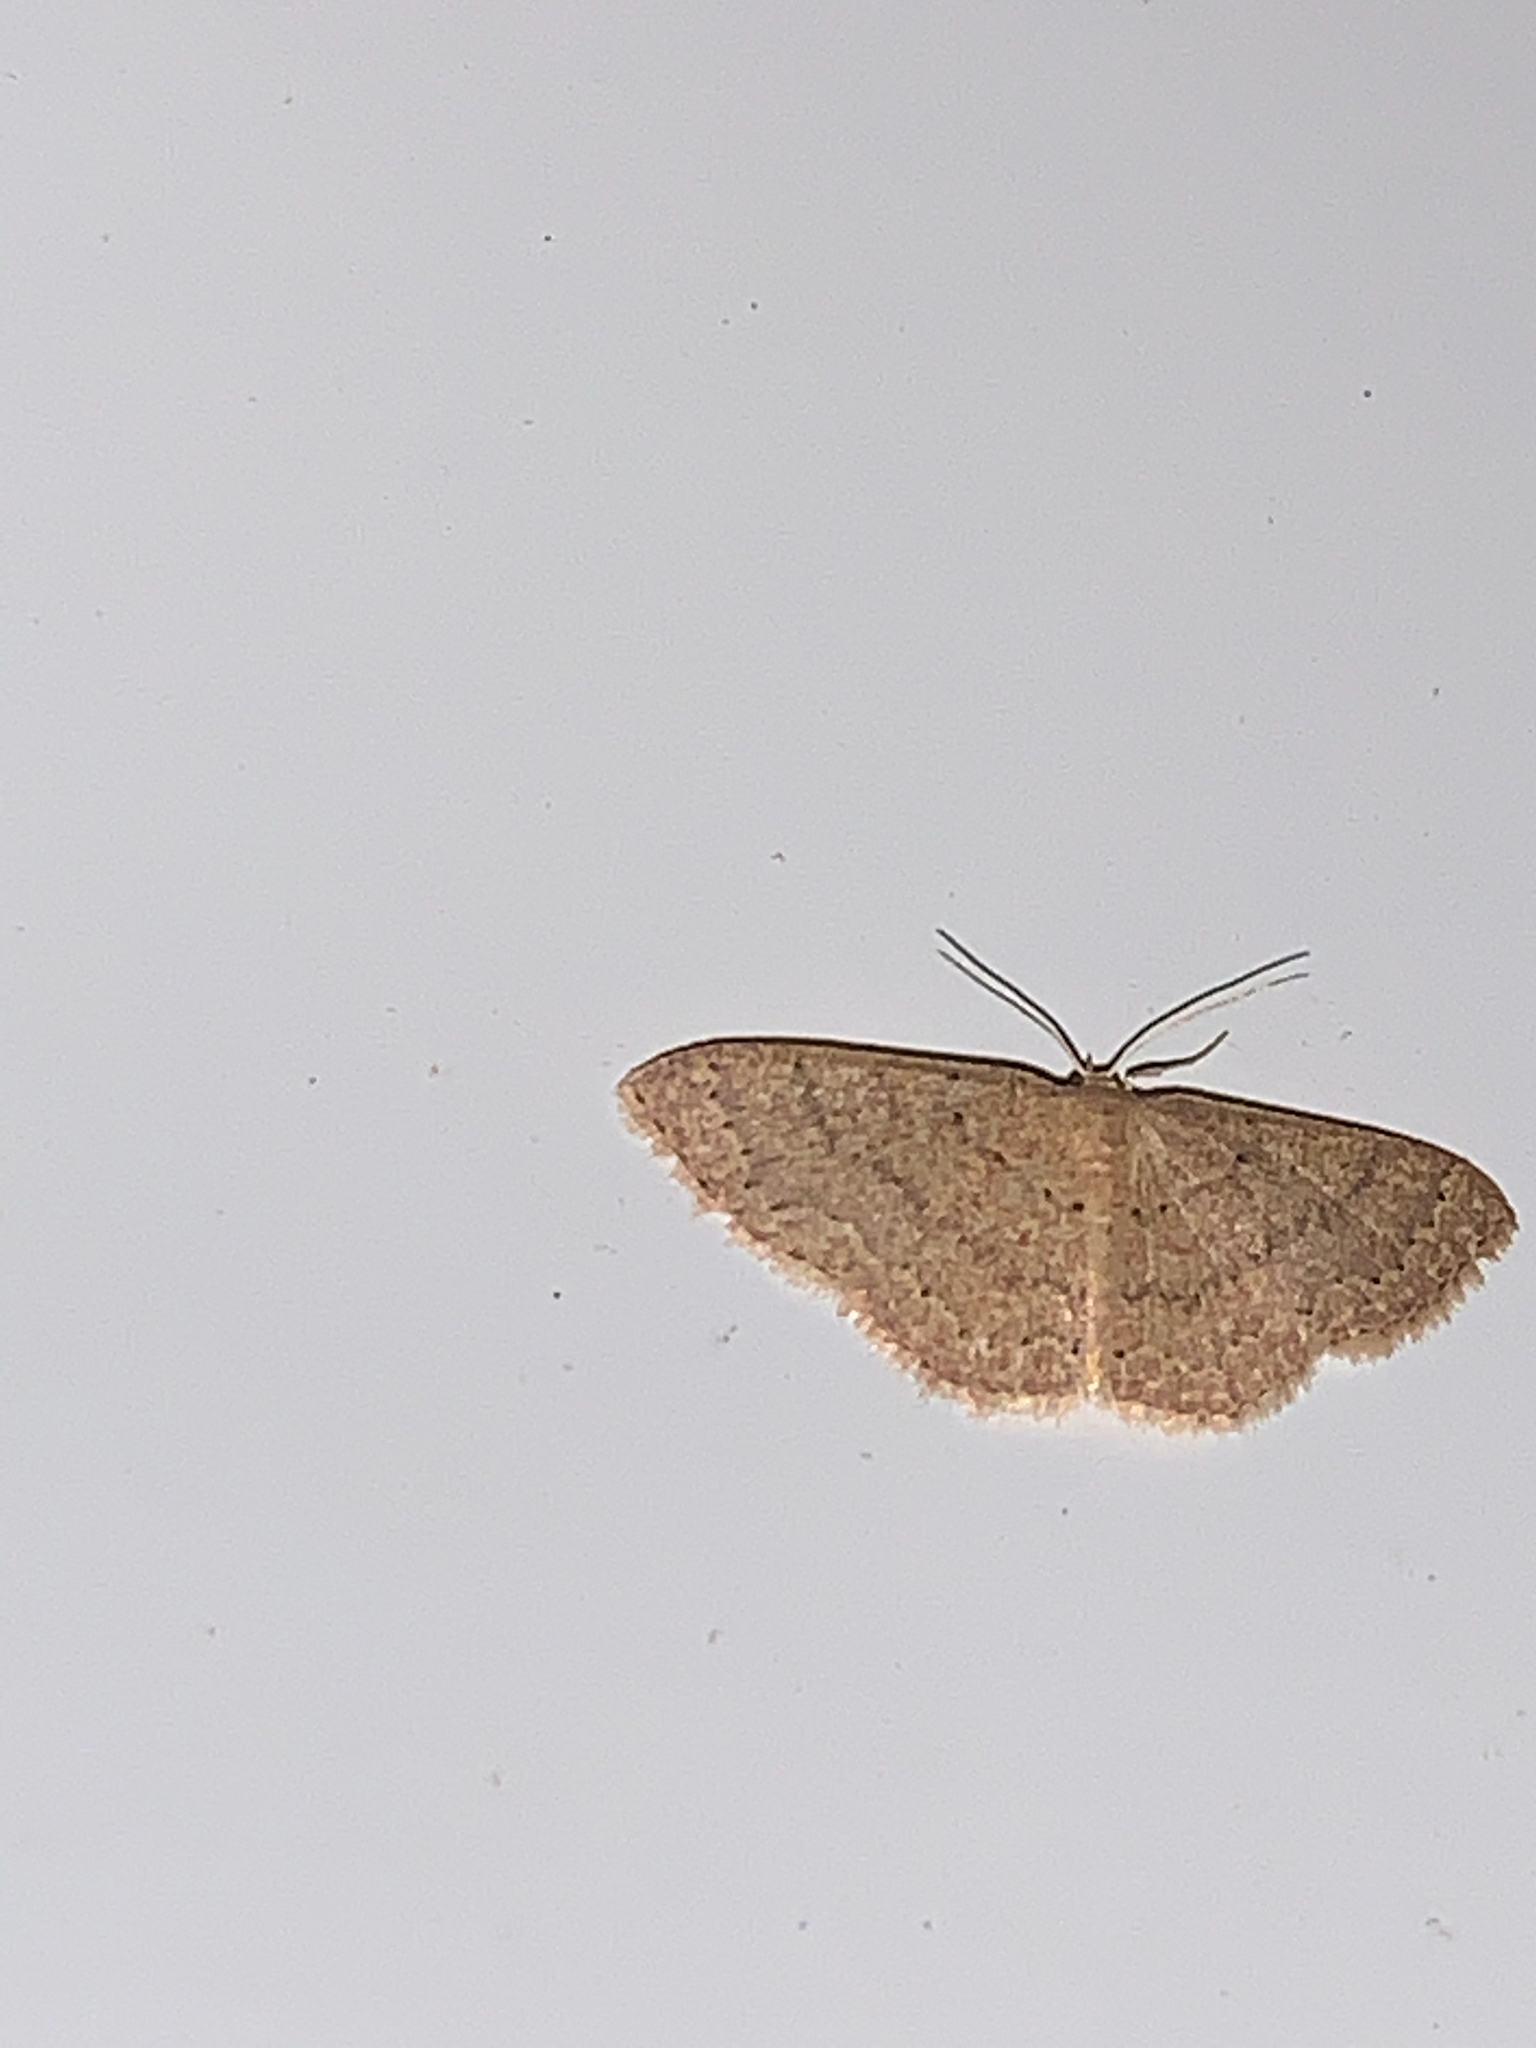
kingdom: Animalia
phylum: Arthropoda
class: Insecta
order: Lepidoptera
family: Geometridae
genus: Pleuroprucha
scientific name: Pleuroprucha insulsaria
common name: Common tan wave
